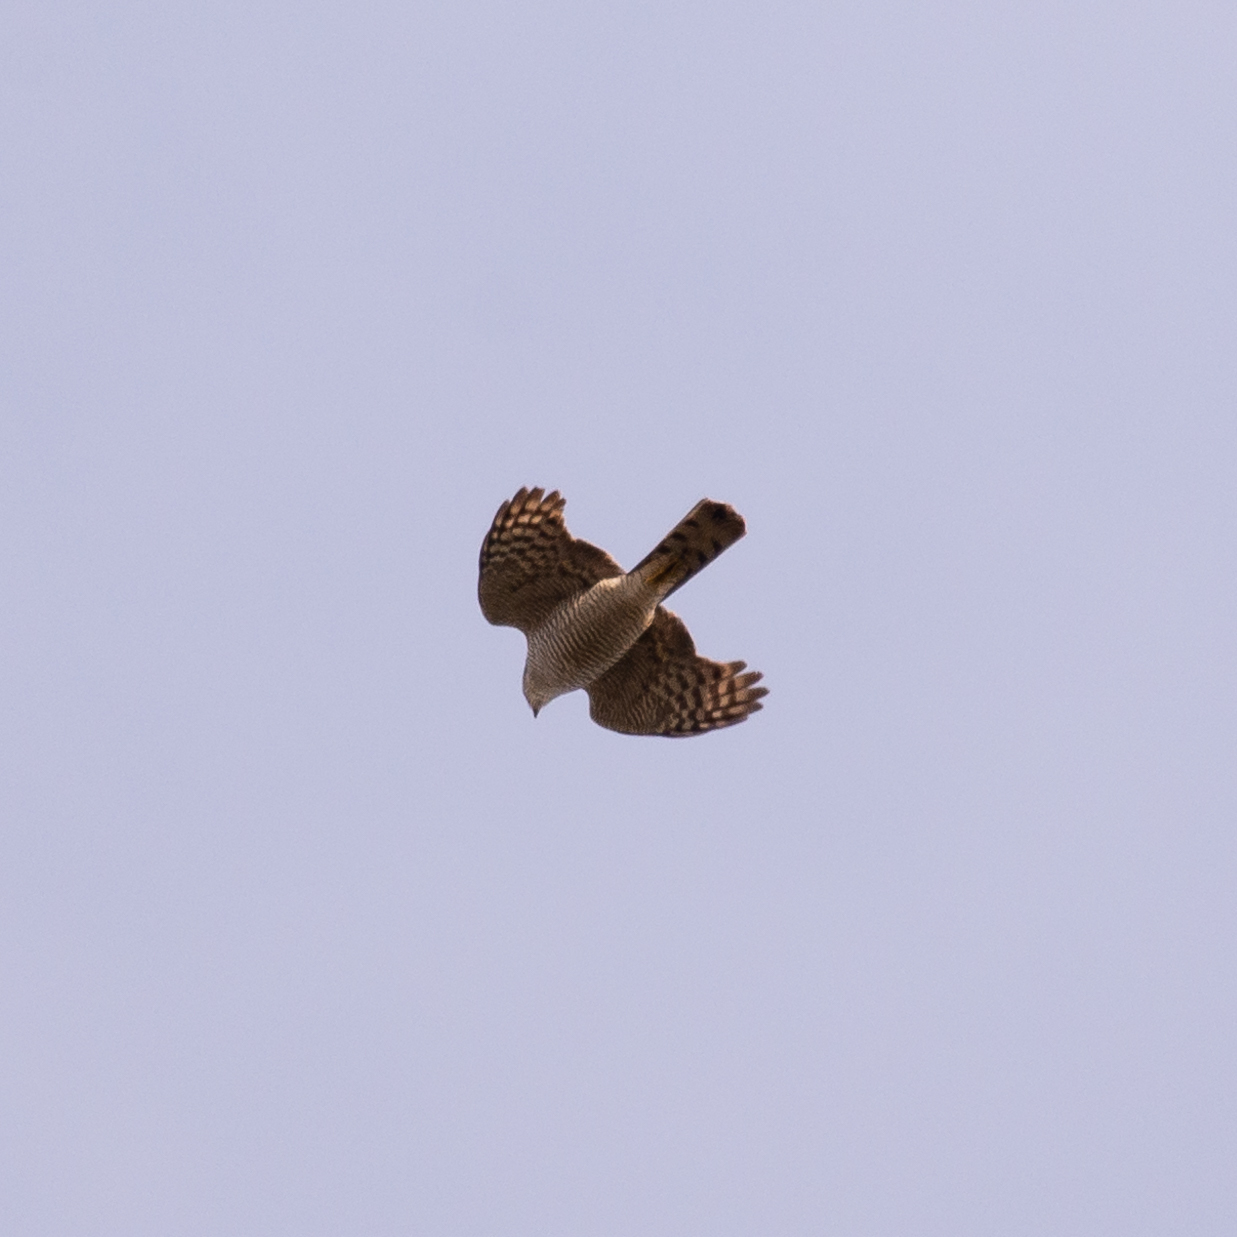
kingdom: Animalia
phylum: Chordata
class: Aves
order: Accipitriformes
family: Accipitridae
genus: Accipiter
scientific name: Accipiter nisus
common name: Eurasian sparrowhawk
